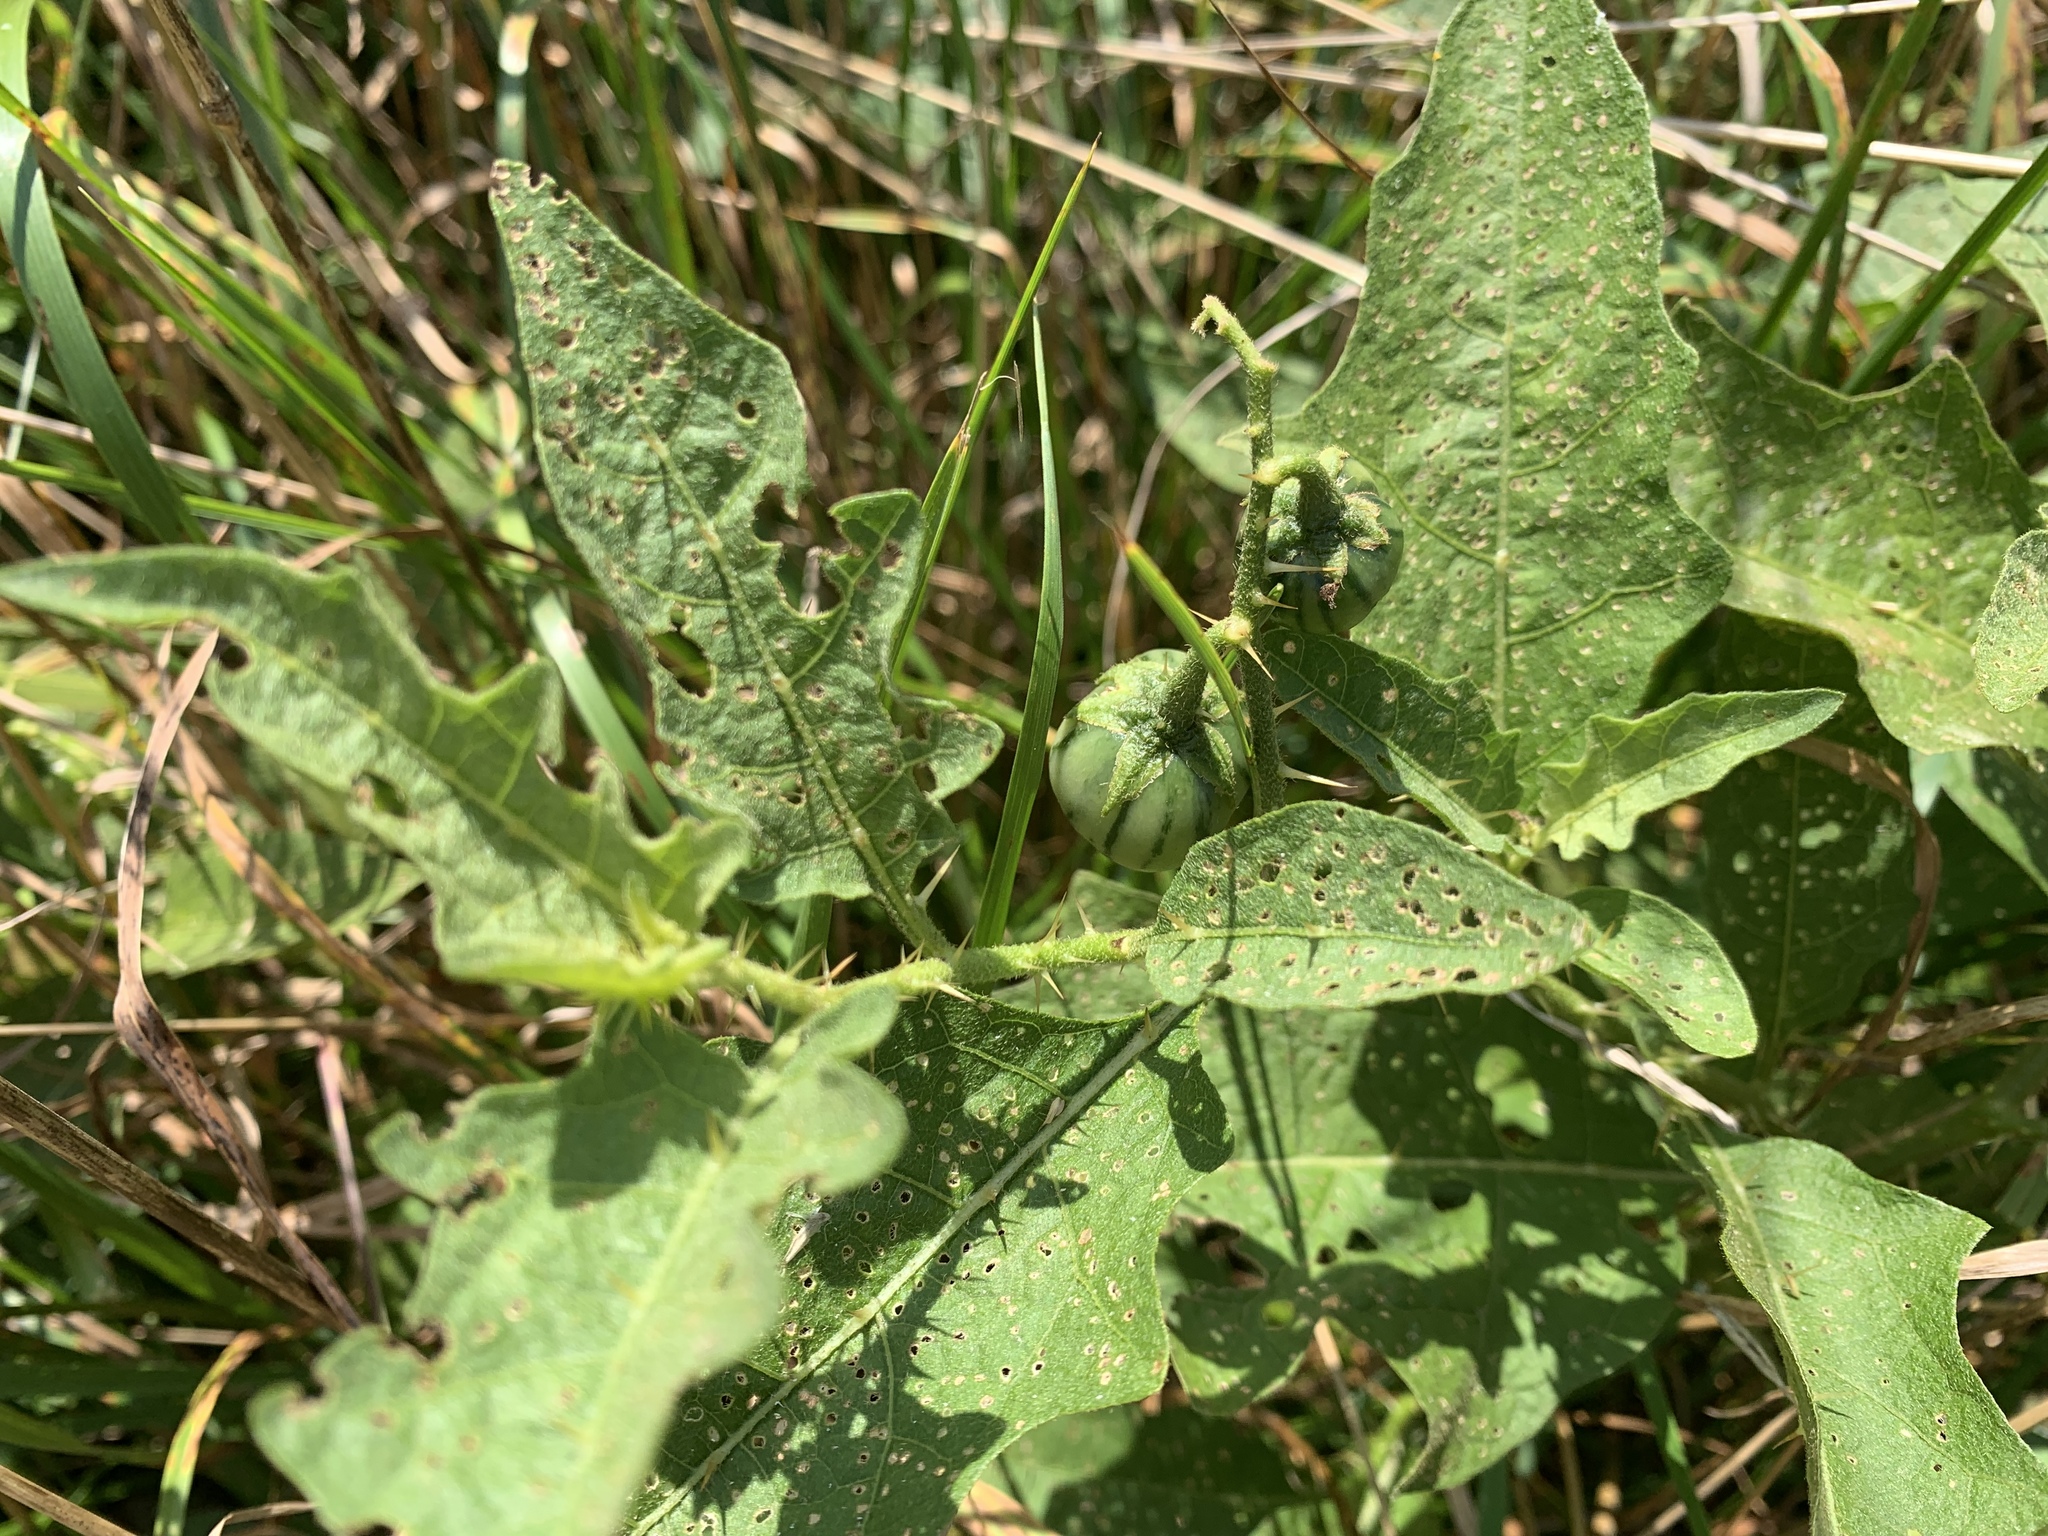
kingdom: Plantae
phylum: Tracheophyta
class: Magnoliopsida
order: Solanales
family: Solanaceae
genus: Solanum
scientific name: Solanum carolinense
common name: Horse-nettle
